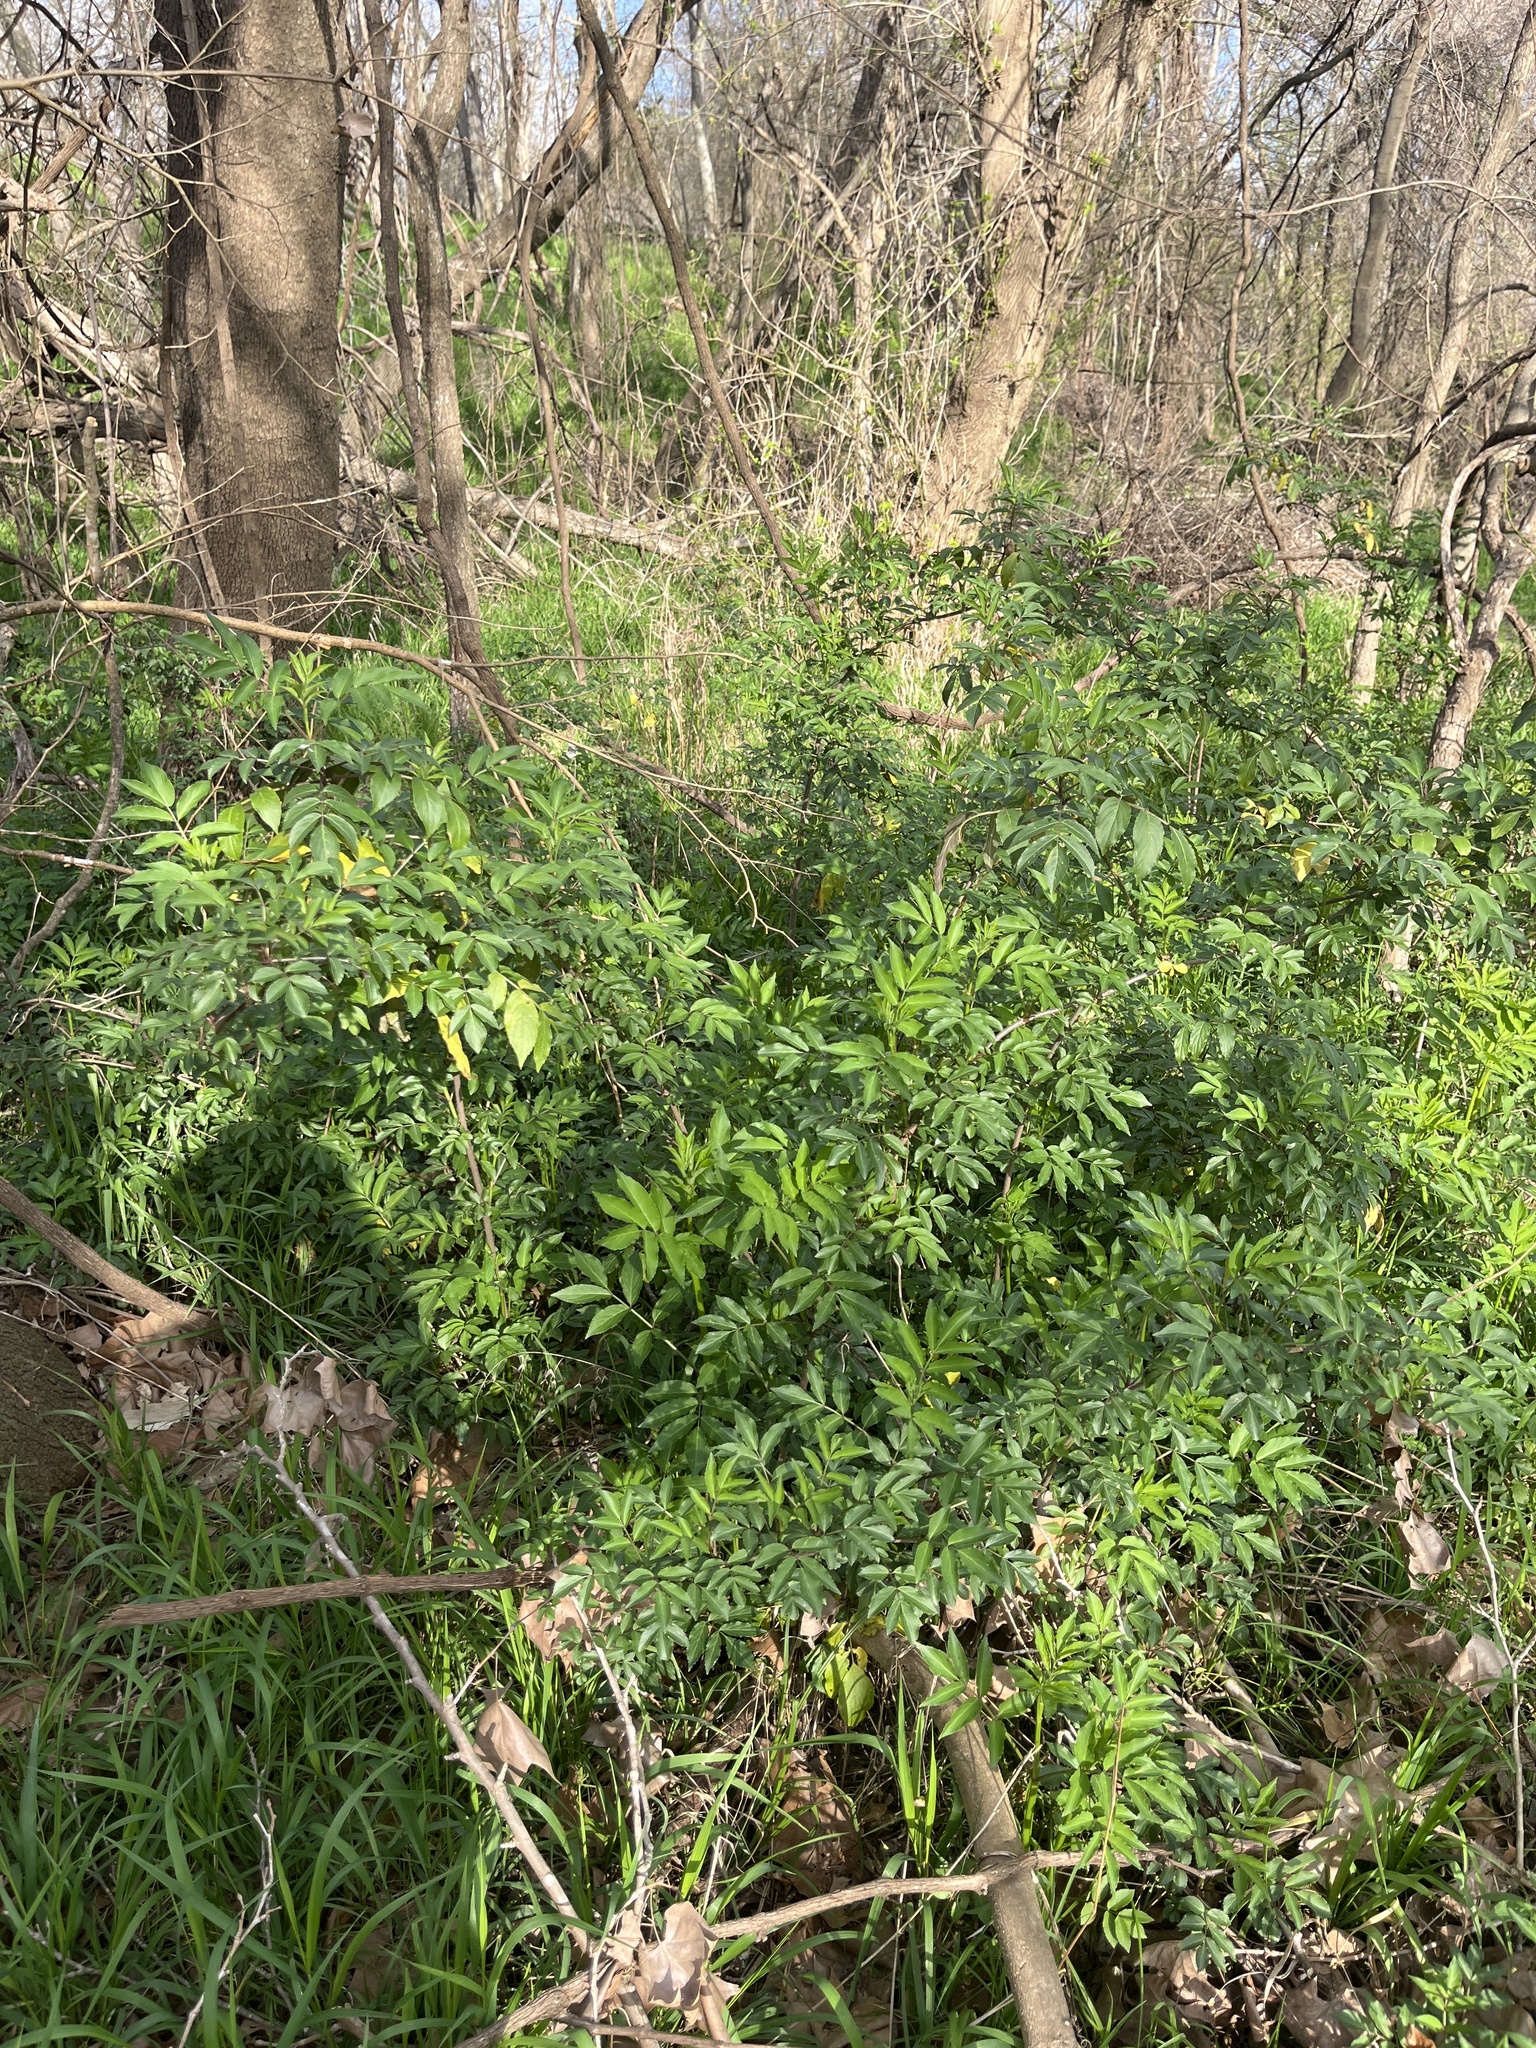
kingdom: Plantae
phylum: Tracheophyta
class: Magnoliopsida
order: Dipsacales
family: Viburnaceae
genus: Sambucus
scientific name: Sambucus canadensis
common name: American elder
